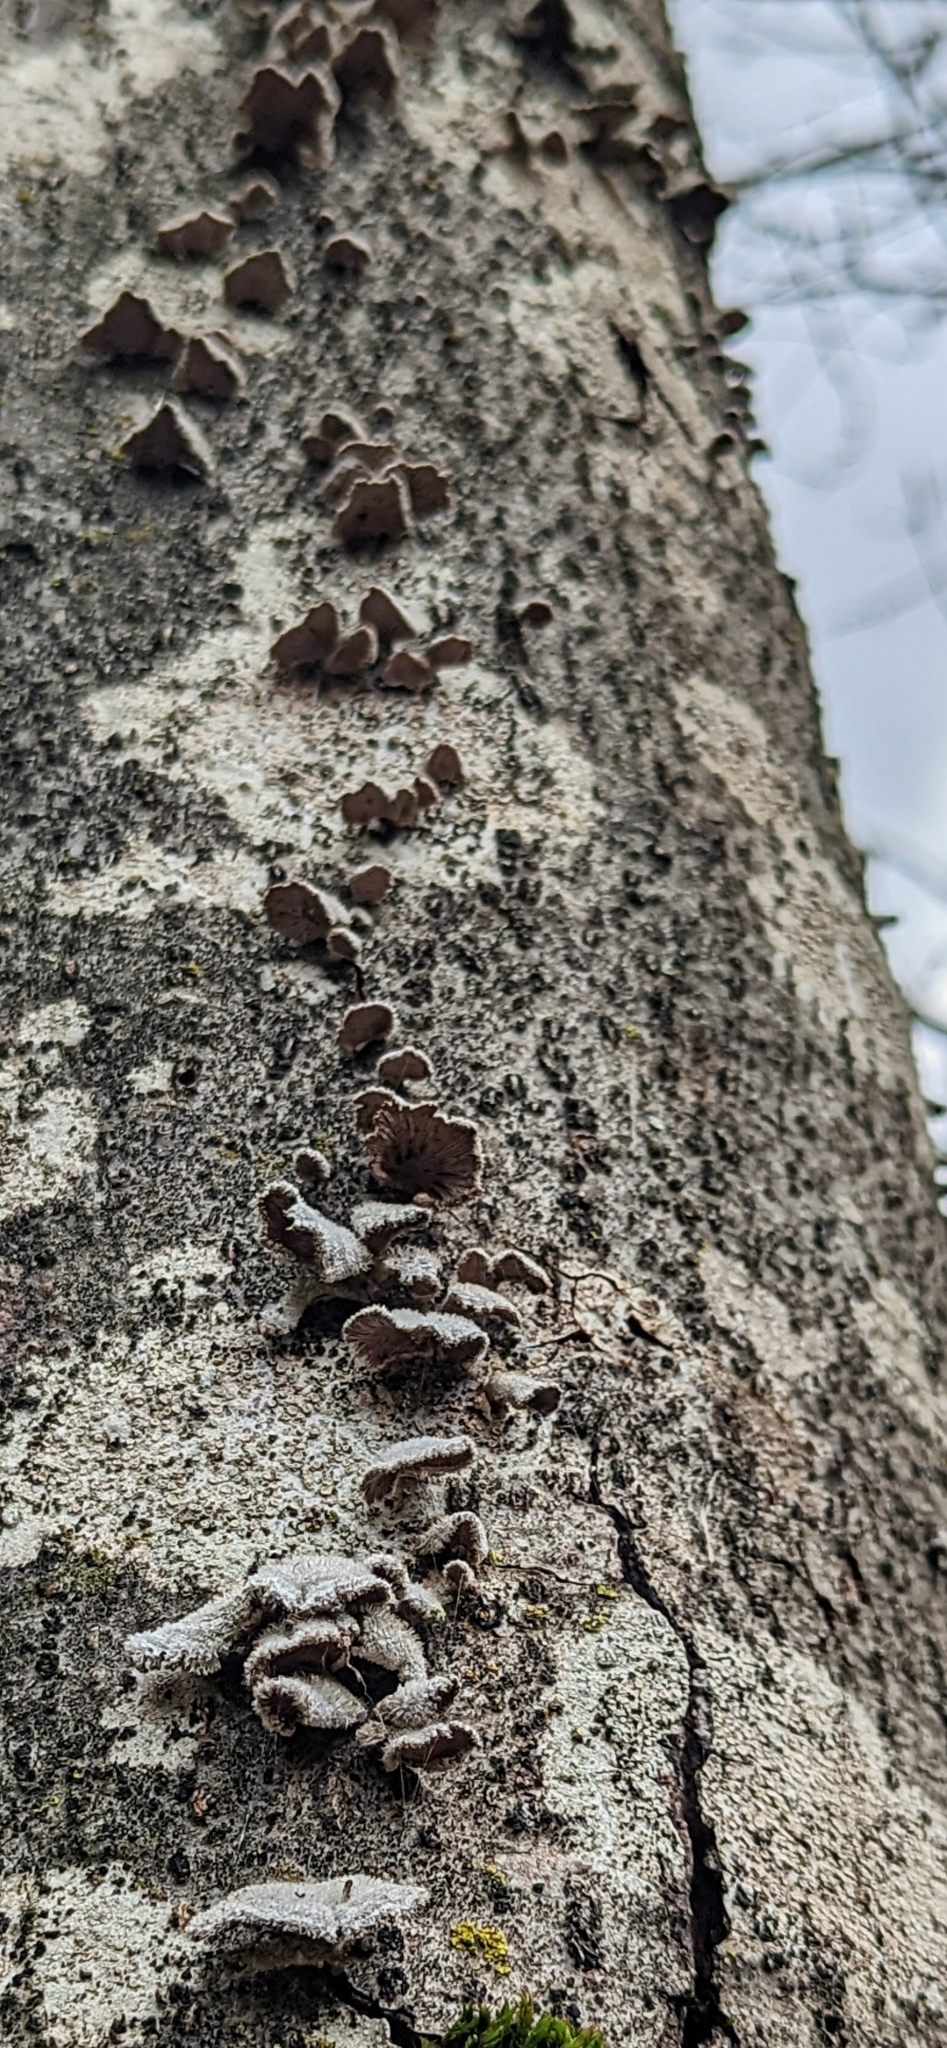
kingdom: Fungi
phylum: Basidiomycota
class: Agaricomycetes
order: Agaricales
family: Schizophyllaceae
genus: Schizophyllum
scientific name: Schizophyllum commune
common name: Common porecrust
